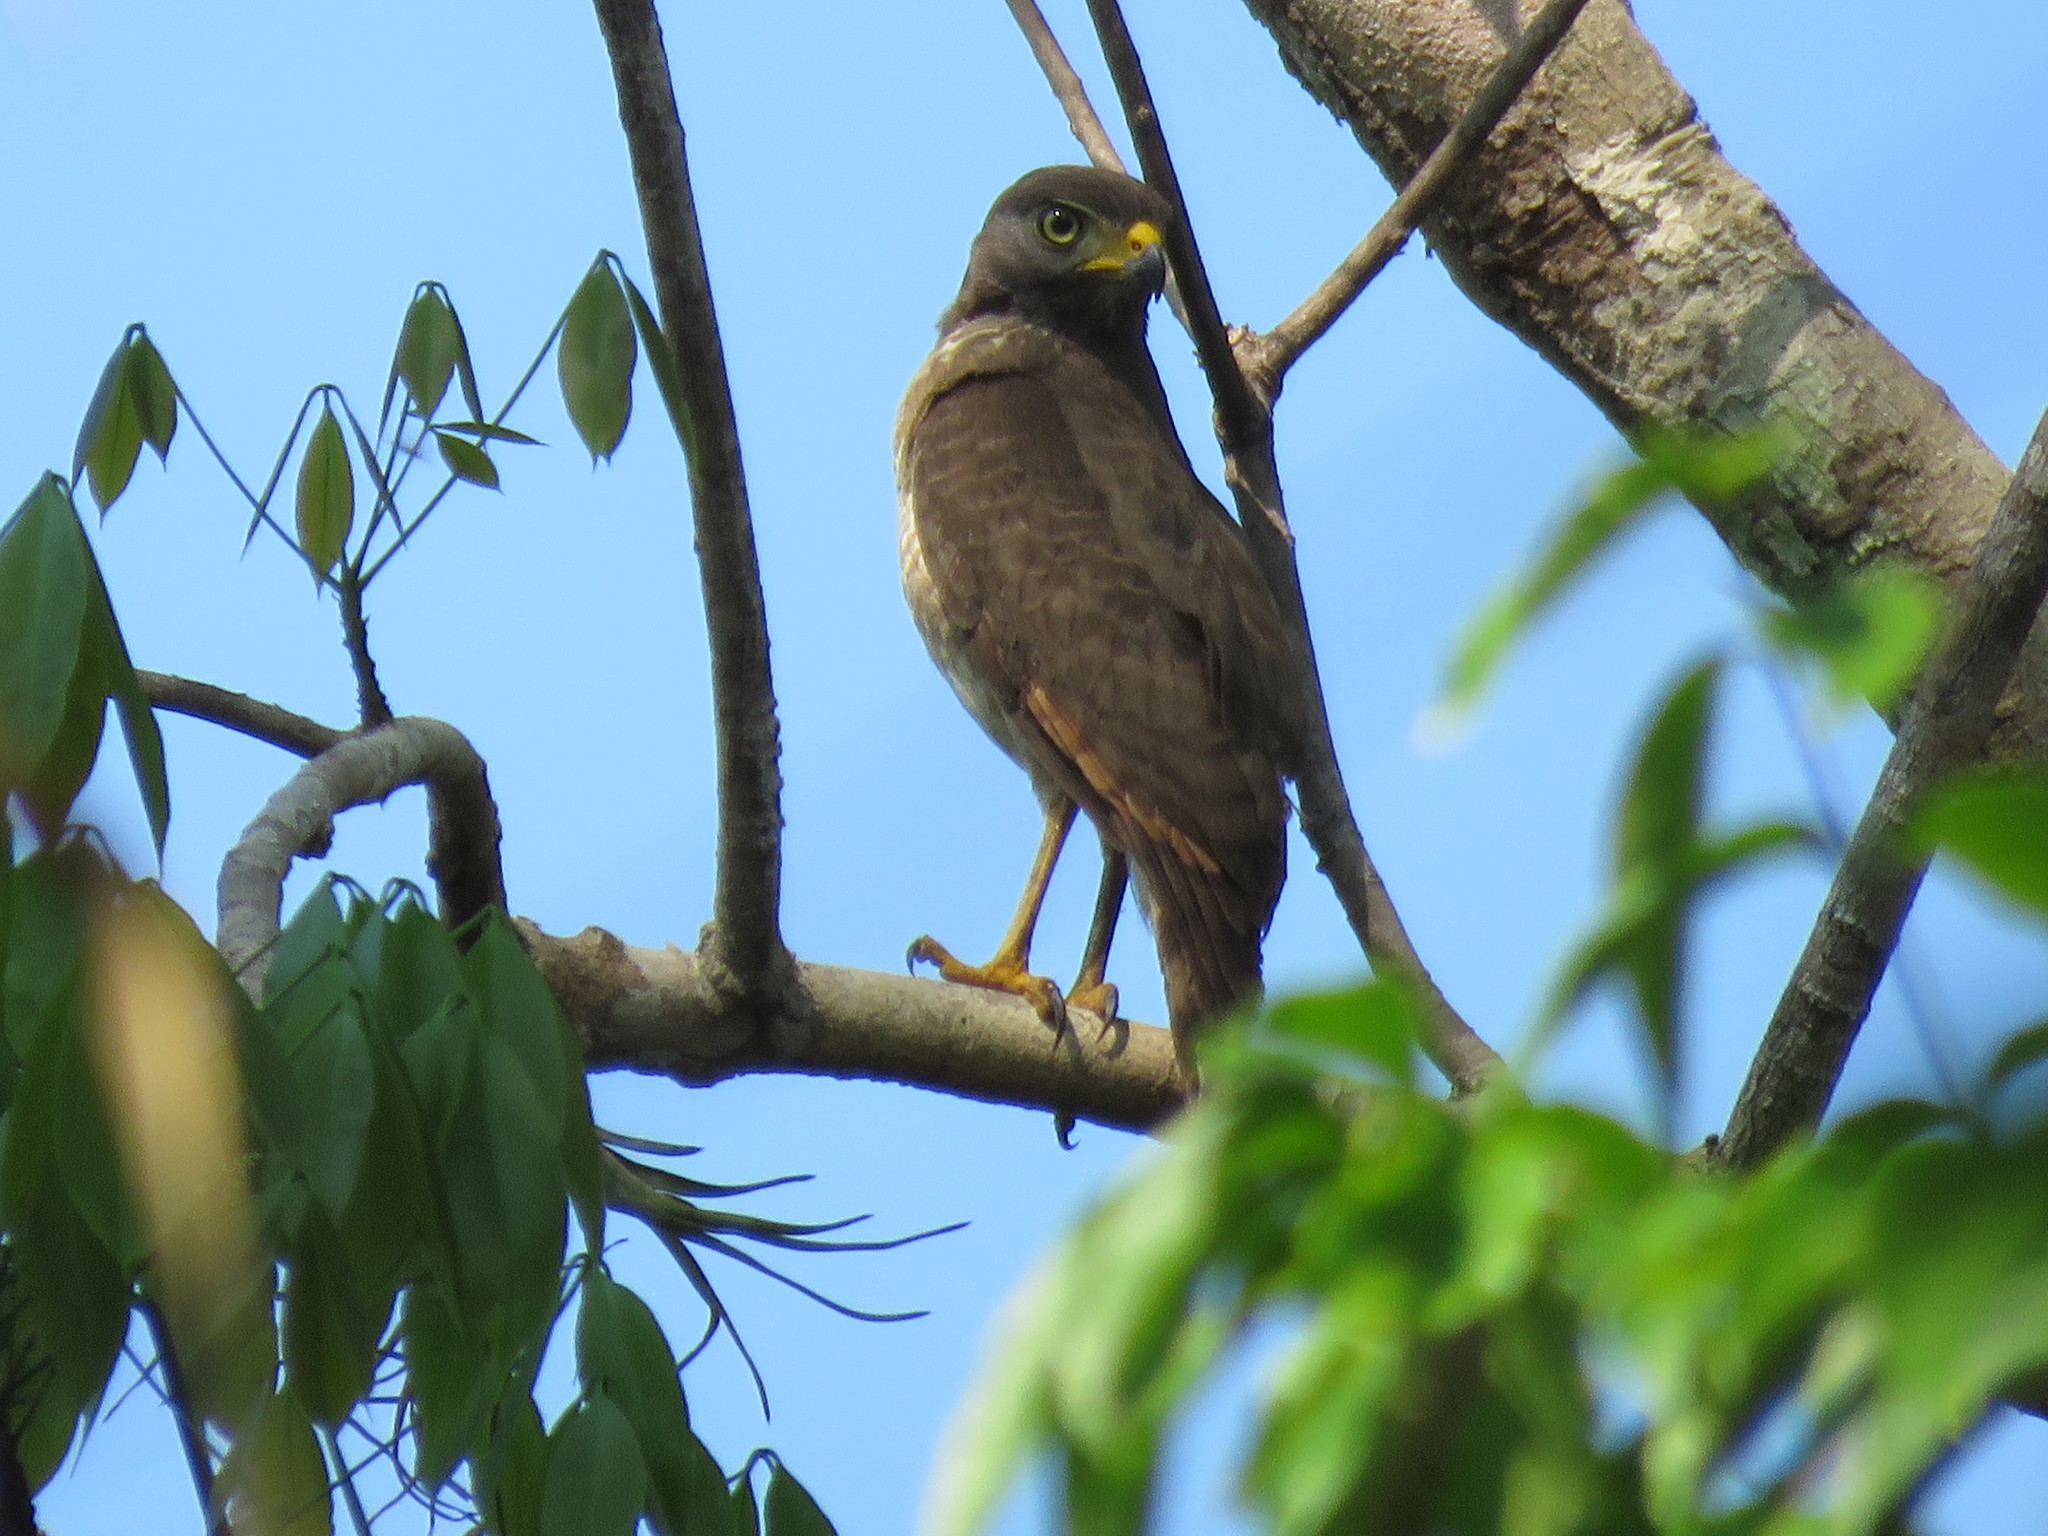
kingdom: Animalia
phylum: Chordata
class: Aves
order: Accipitriformes
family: Accipitridae
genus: Rupornis
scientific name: Rupornis magnirostris
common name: Roadside hawk
